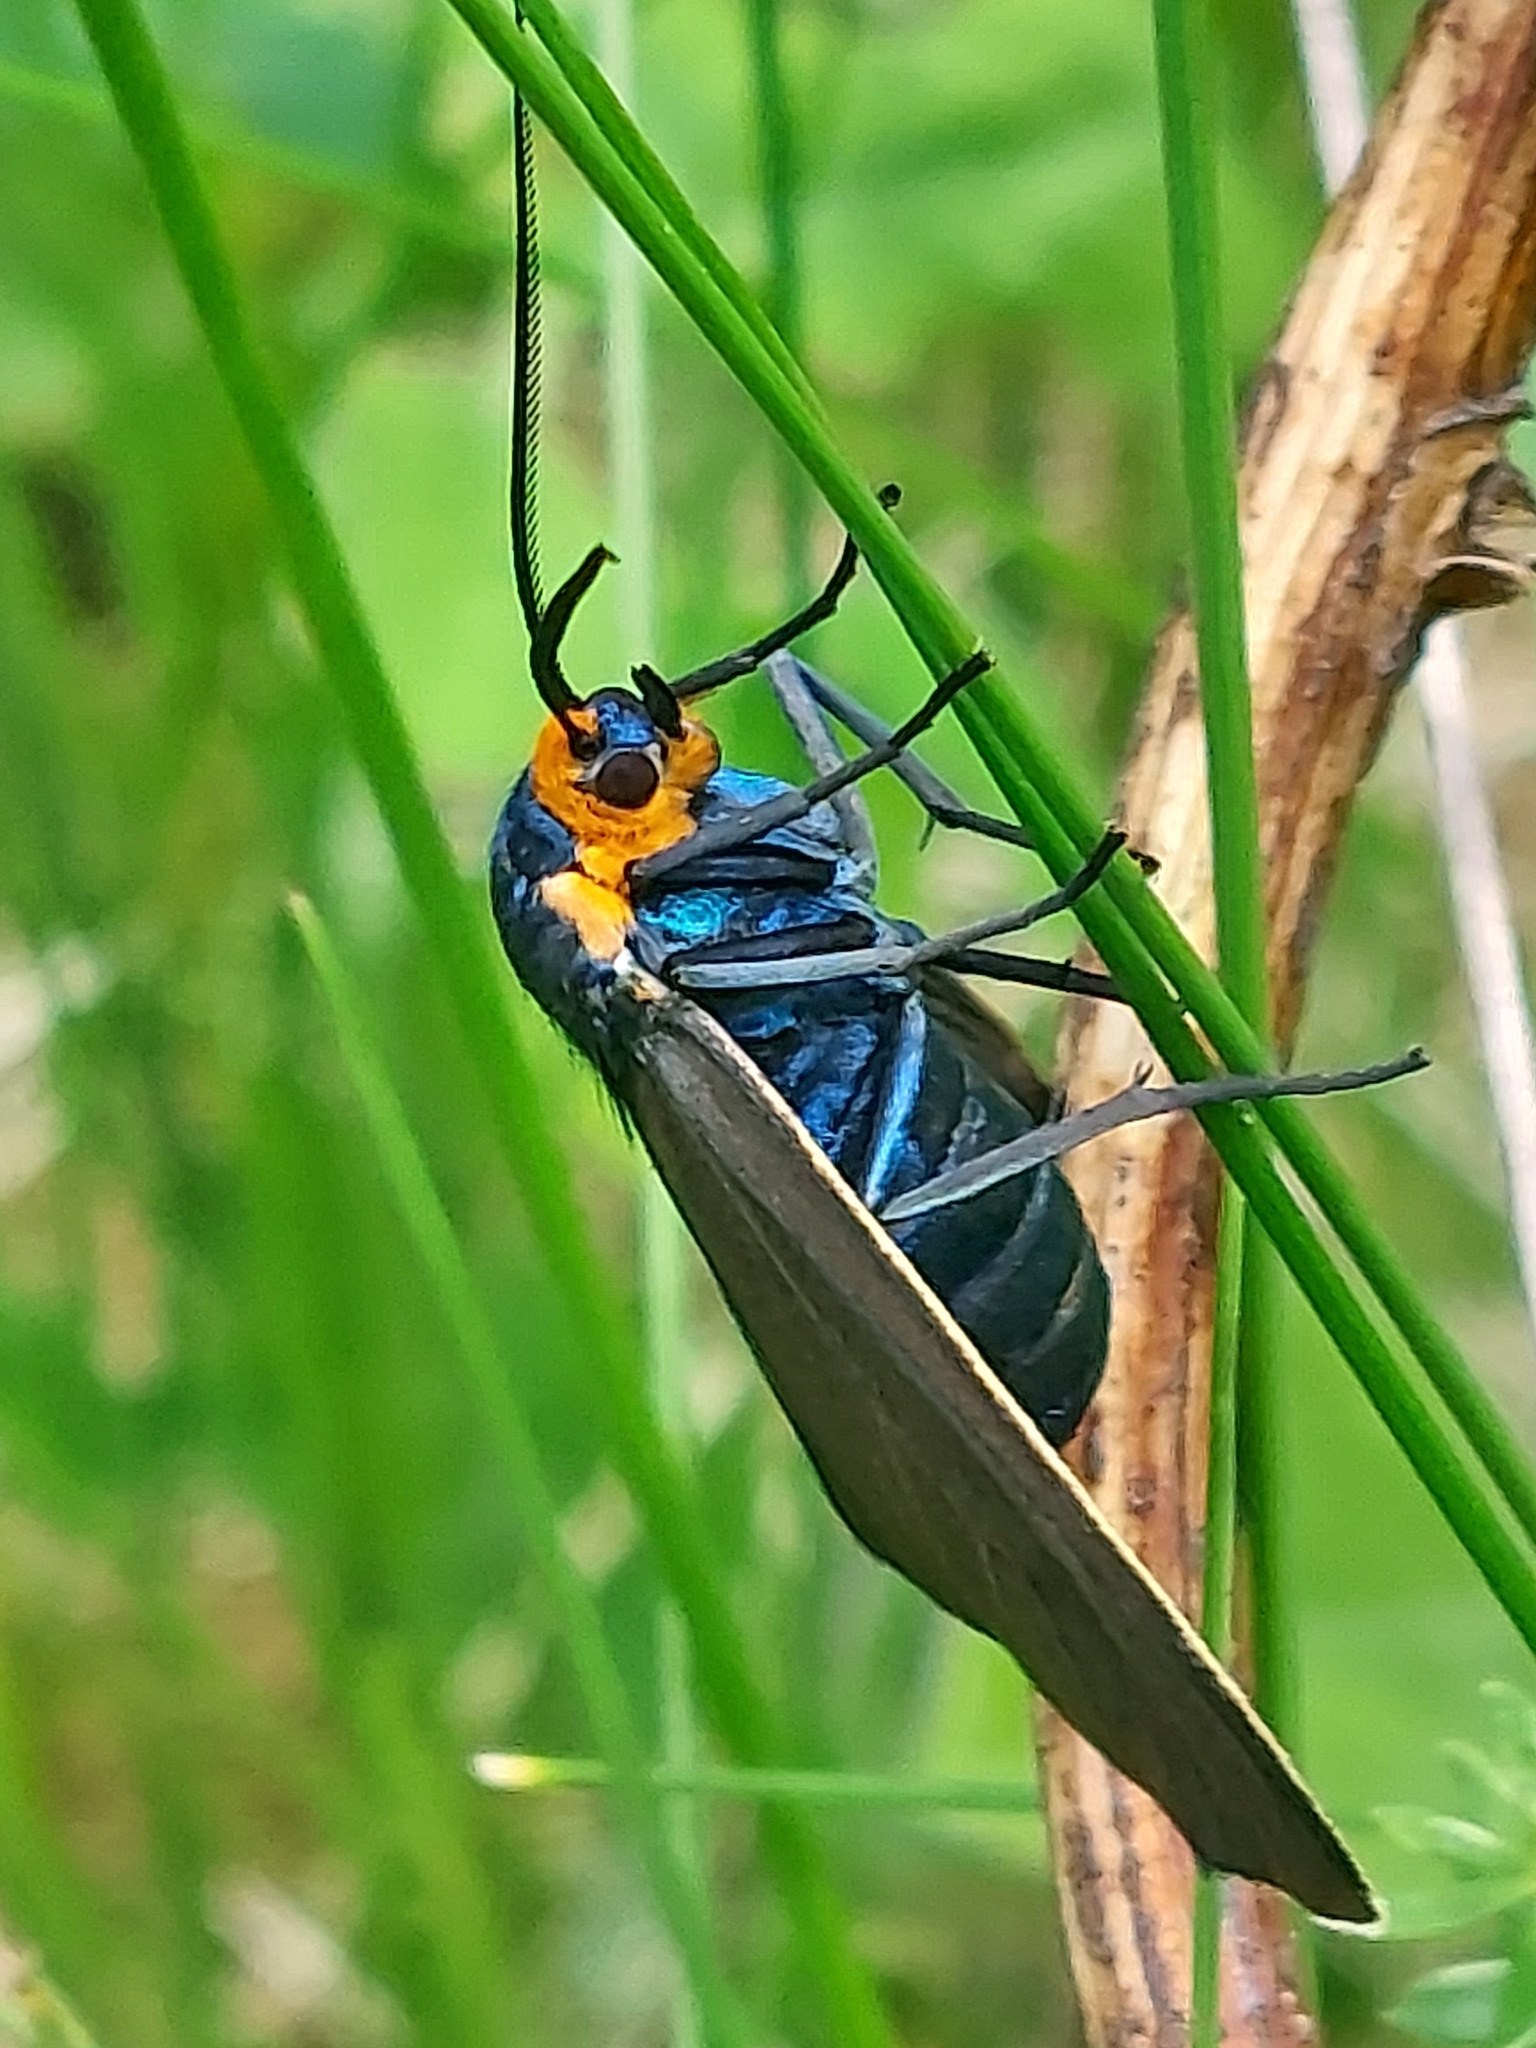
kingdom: Animalia
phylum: Arthropoda
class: Insecta
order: Lepidoptera
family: Erebidae
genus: Ctenucha
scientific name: Ctenucha virginica
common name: Virginia ctenucha moth
